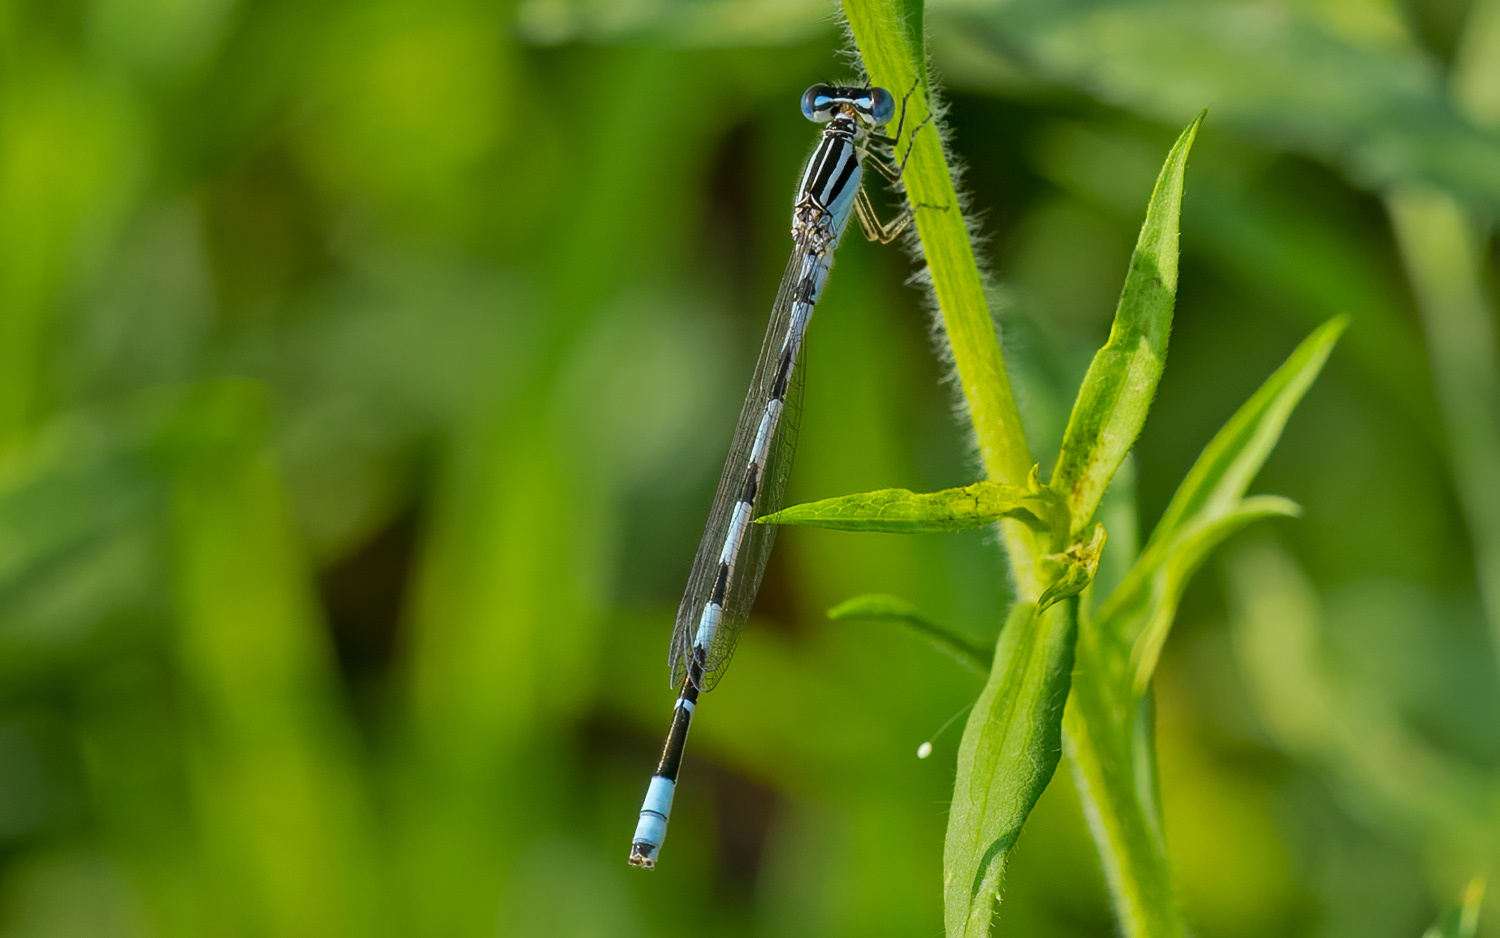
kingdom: Animalia
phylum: Arthropoda
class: Insecta
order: Odonata
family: Coenagrionidae
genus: Enallagma
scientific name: Enallagma durum
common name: Big bluet
